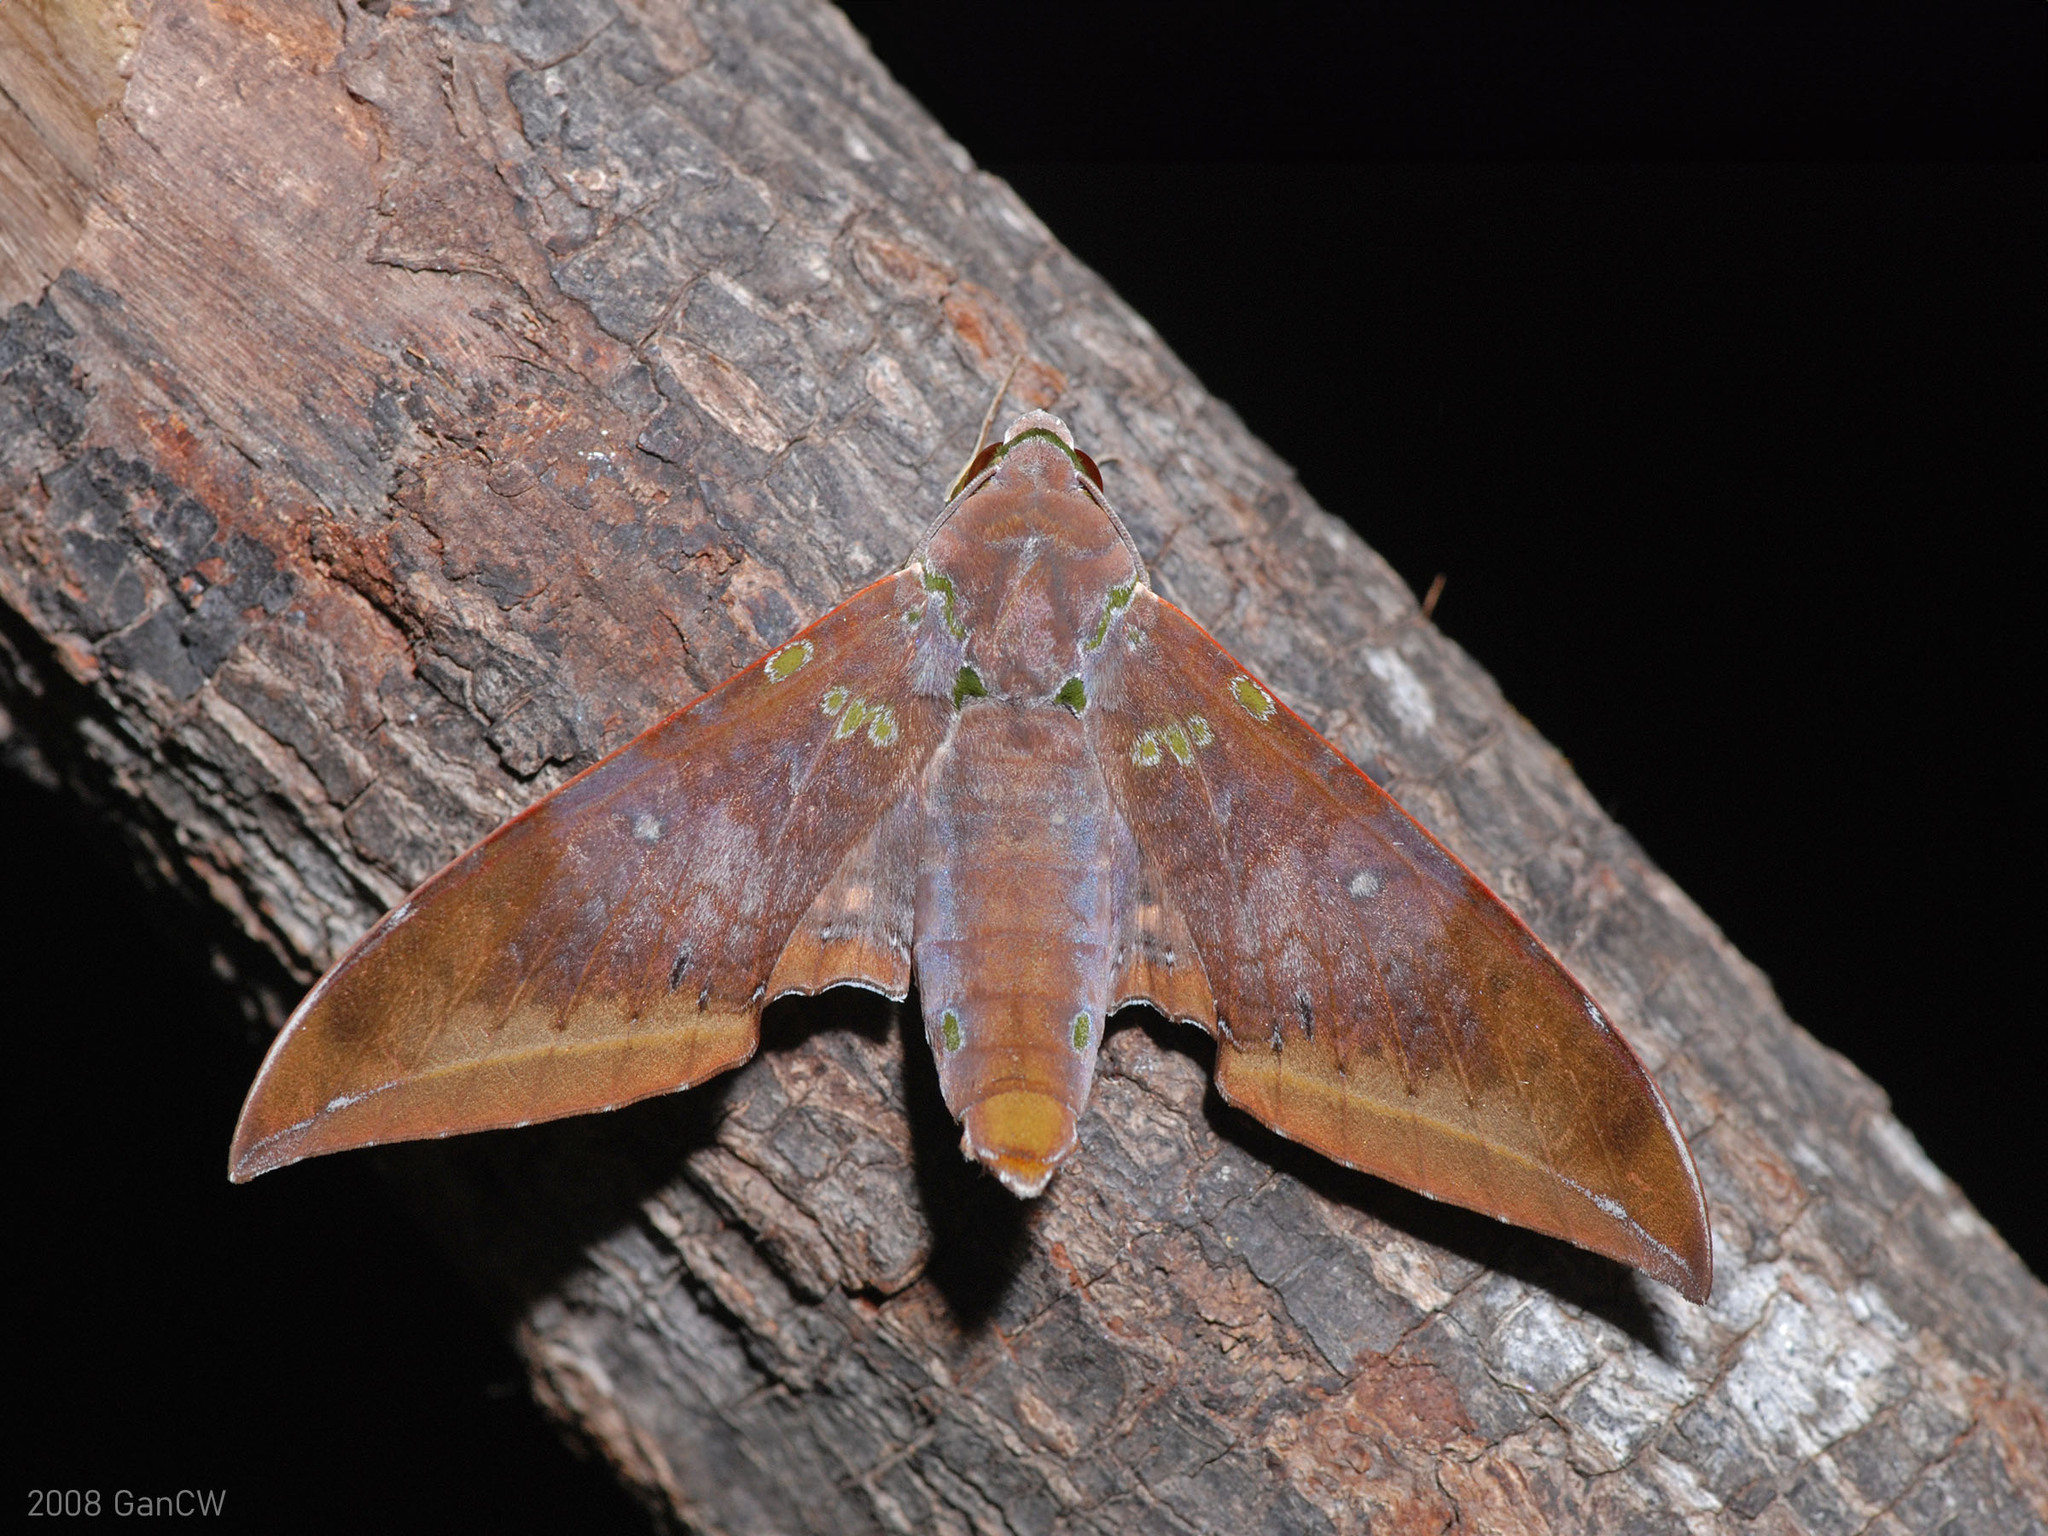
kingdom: Animalia
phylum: Arthropoda
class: Insecta
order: Lepidoptera
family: Sphingidae
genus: Ambulyx
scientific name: Ambulyx moorei
